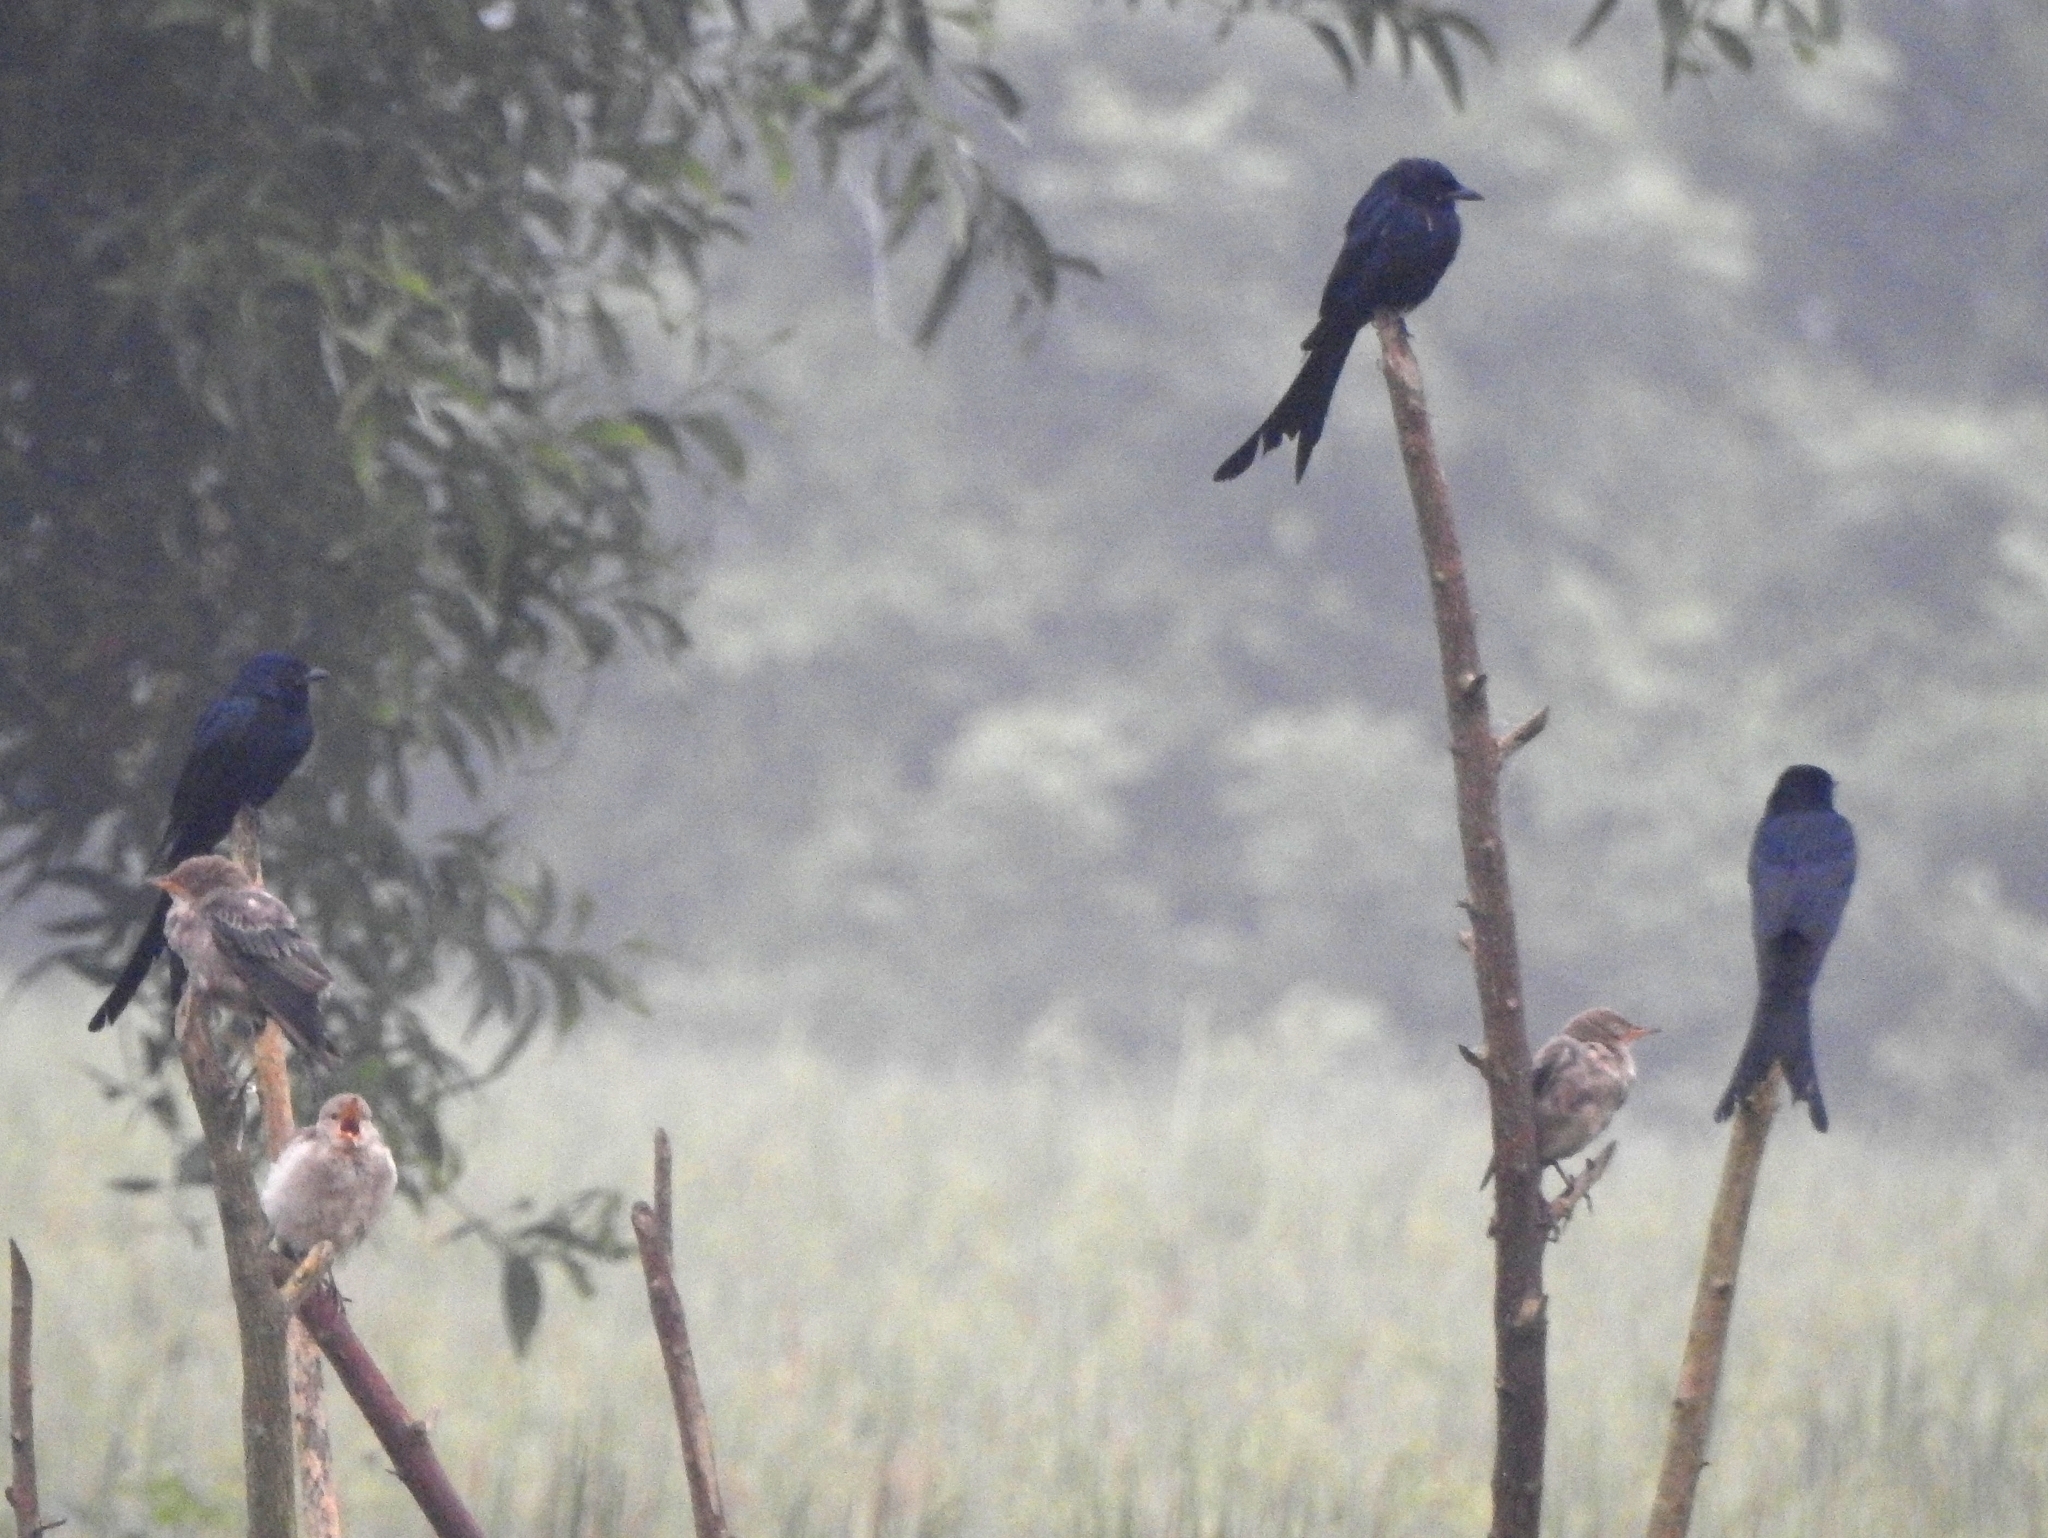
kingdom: Animalia
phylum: Chordata
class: Aves
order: Passeriformes
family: Dicruridae
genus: Dicrurus
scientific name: Dicrurus macrocercus
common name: Black drongo
